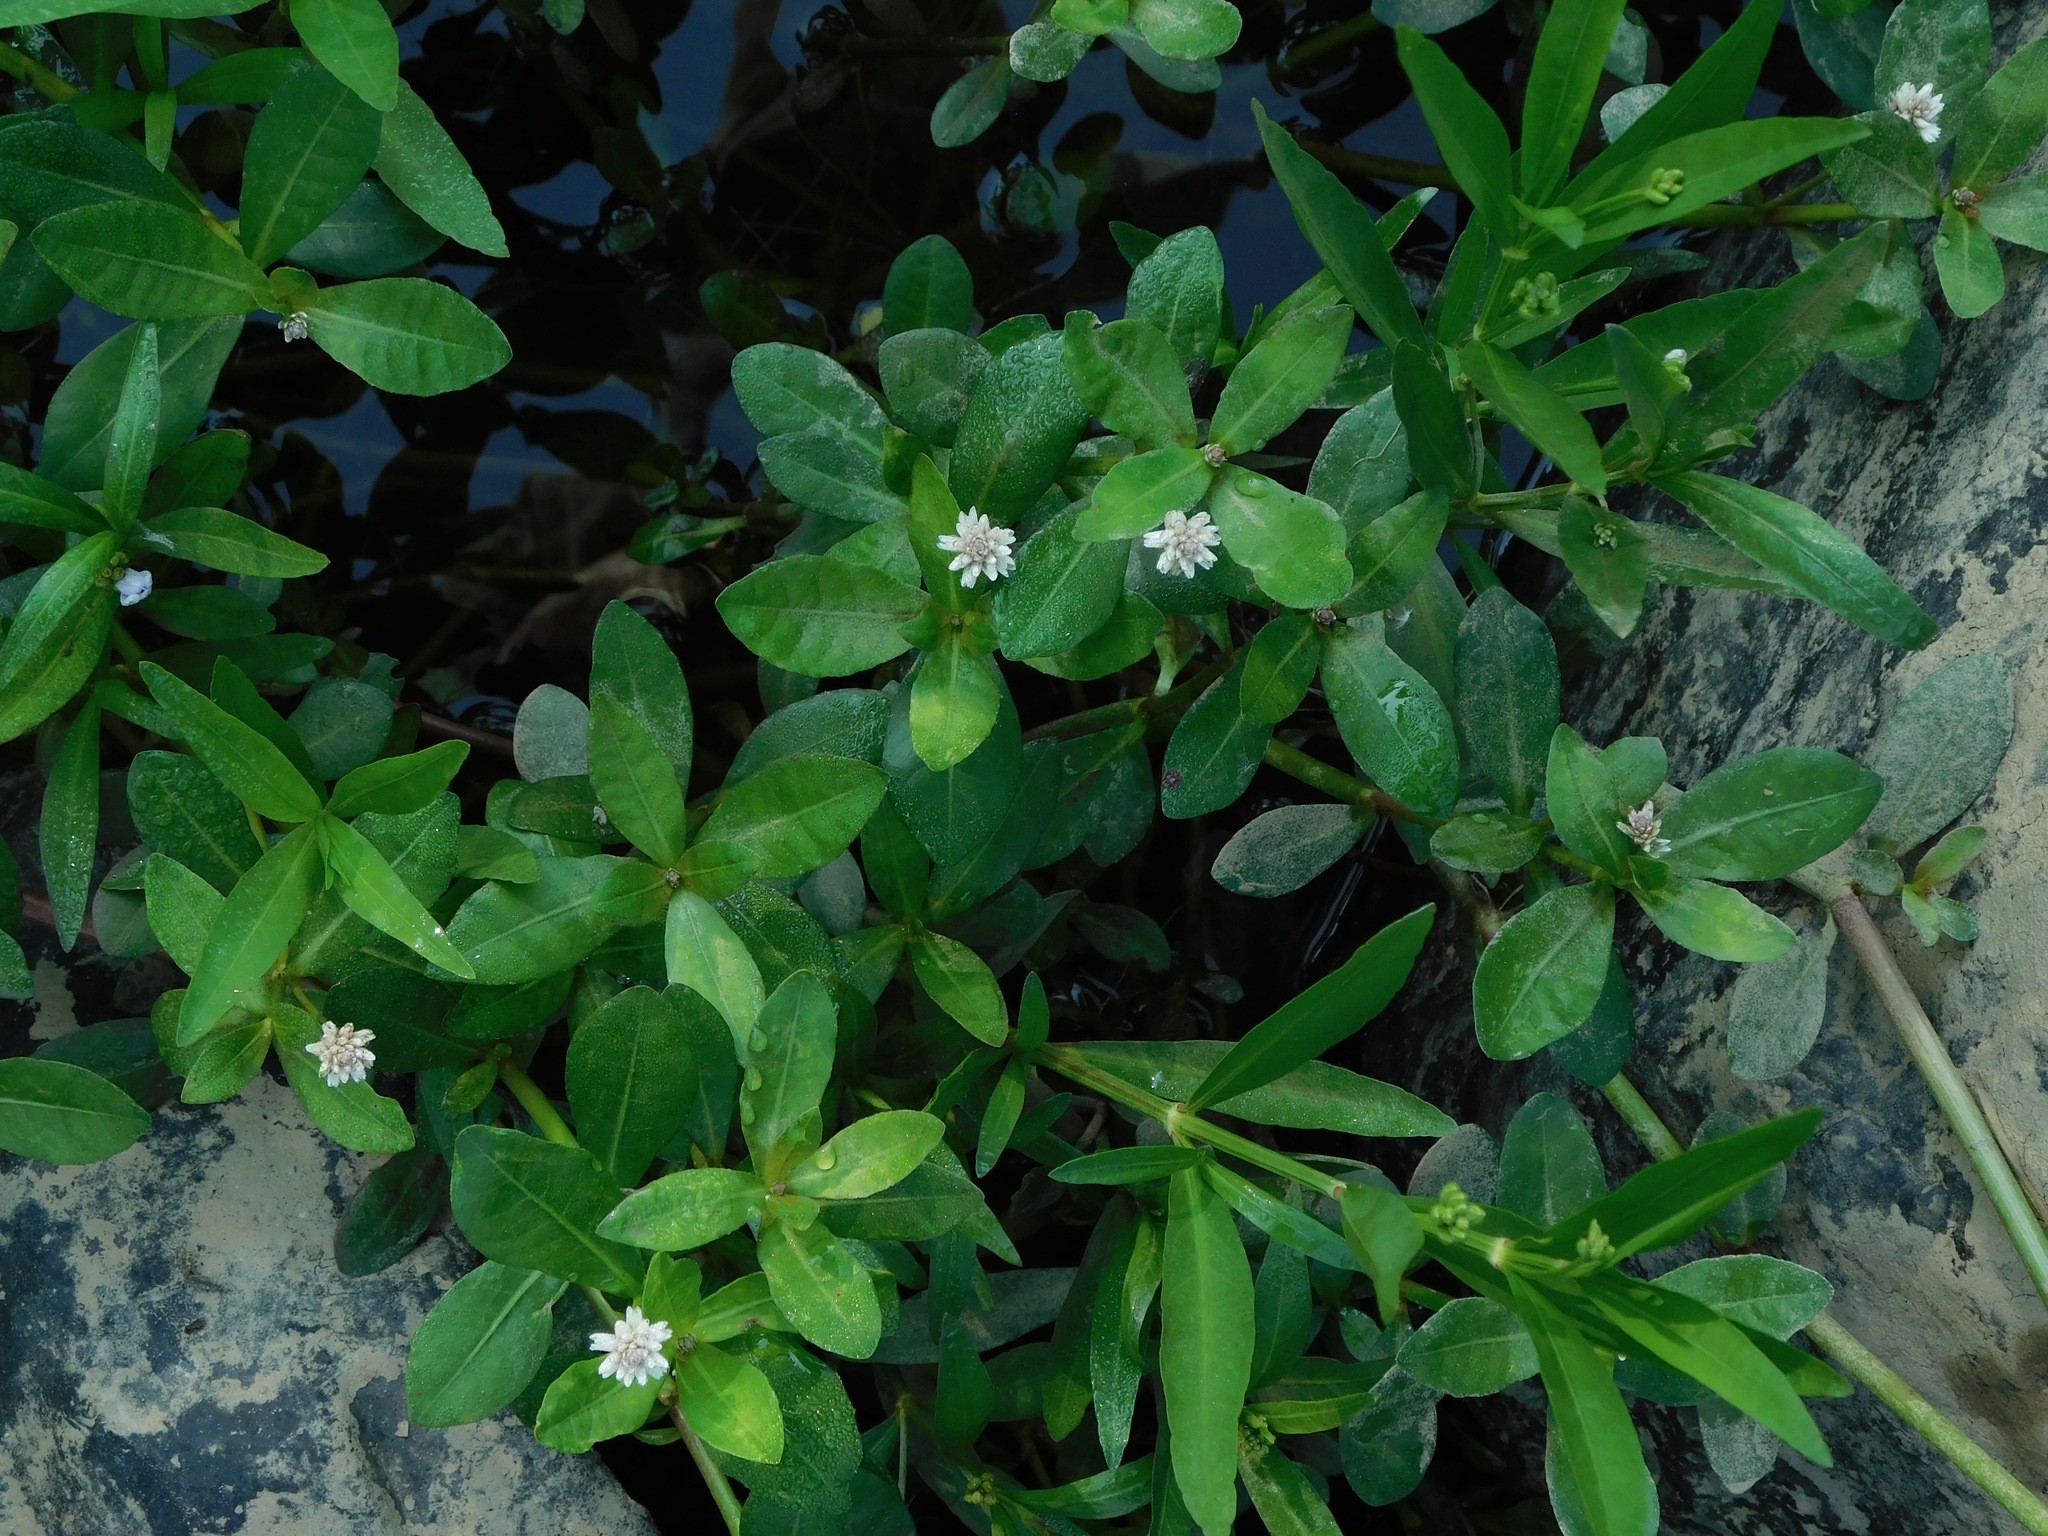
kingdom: Plantae
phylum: Tracheophyta
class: Magnoliopsida
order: Caryophyllales
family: Amaranthaceae
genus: Alternanthera
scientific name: Alternanthera philoxeroides
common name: Alligatorweed
